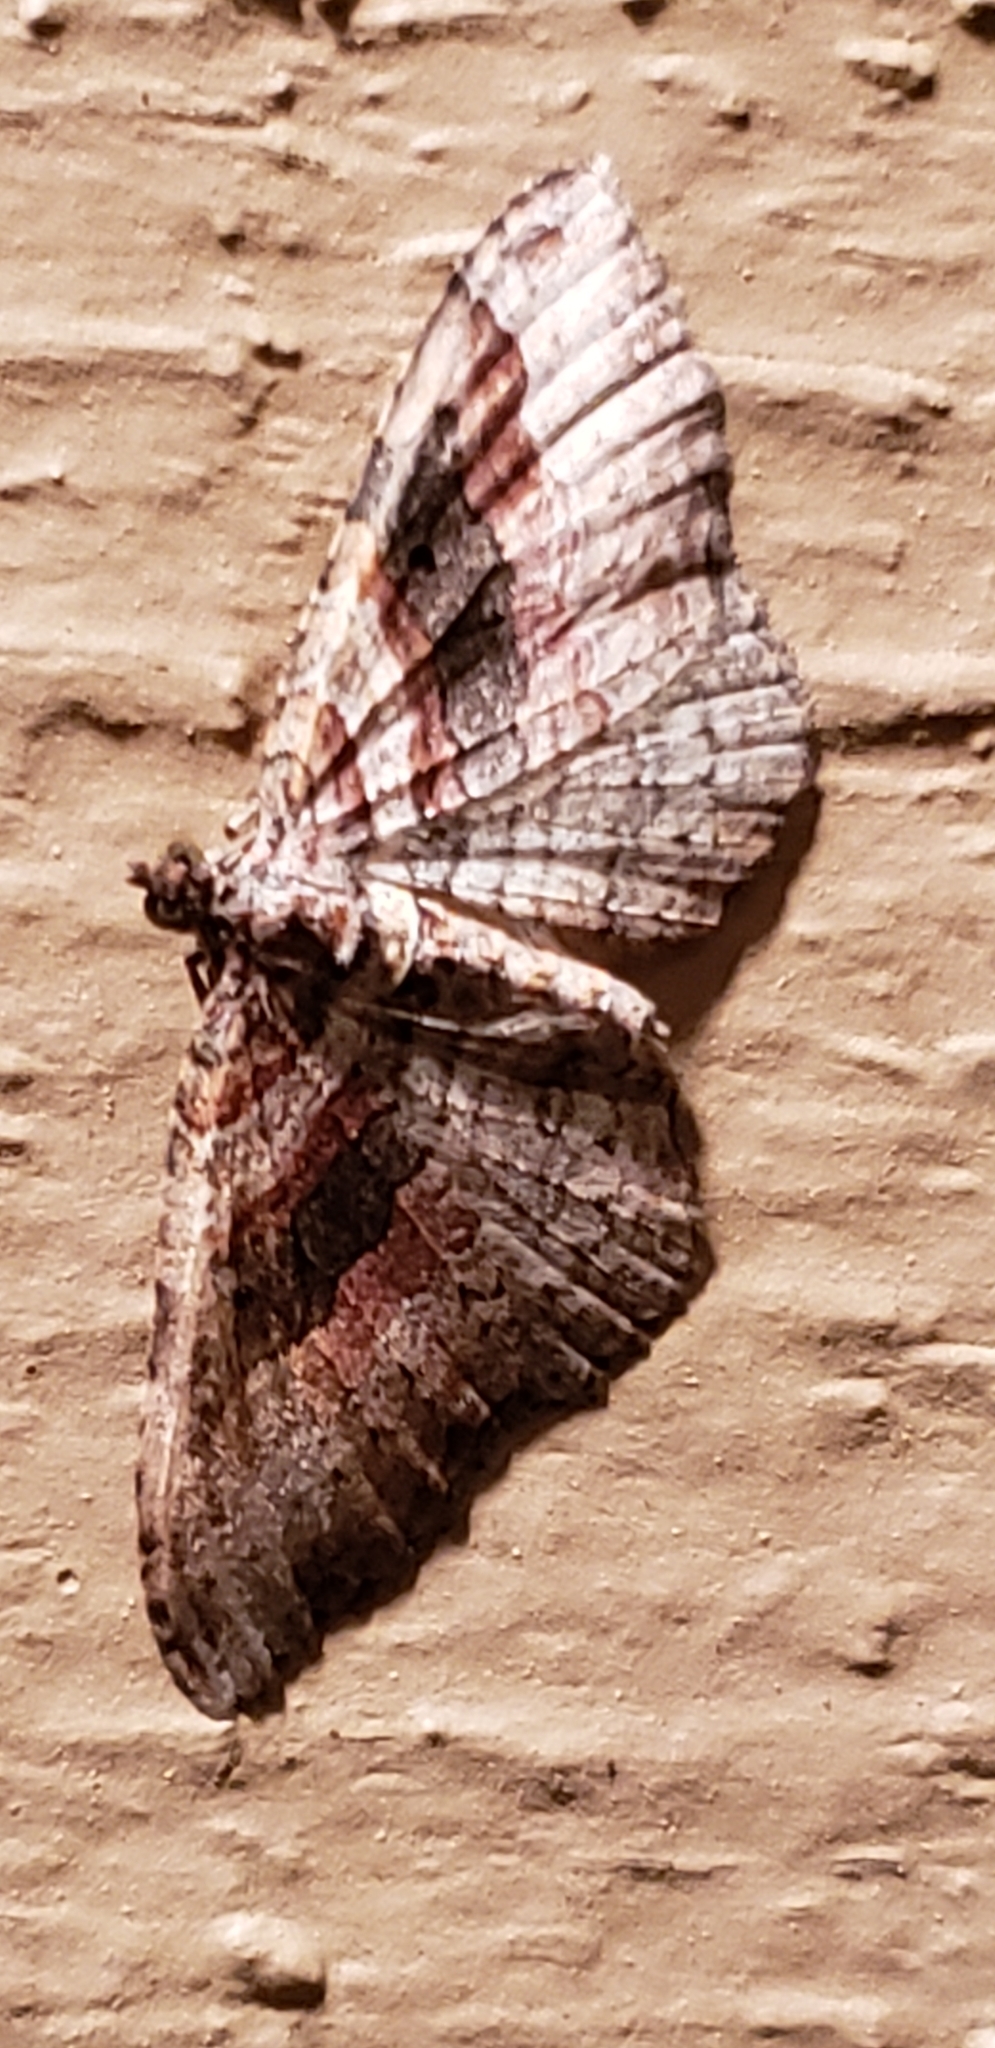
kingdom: Animalia
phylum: Arthropoda
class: Insecta
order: Lepidoptera
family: Geometridae
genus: Costaconvexa
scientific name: Costaconvexa centrostrigaria
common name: Bent-line carpet
